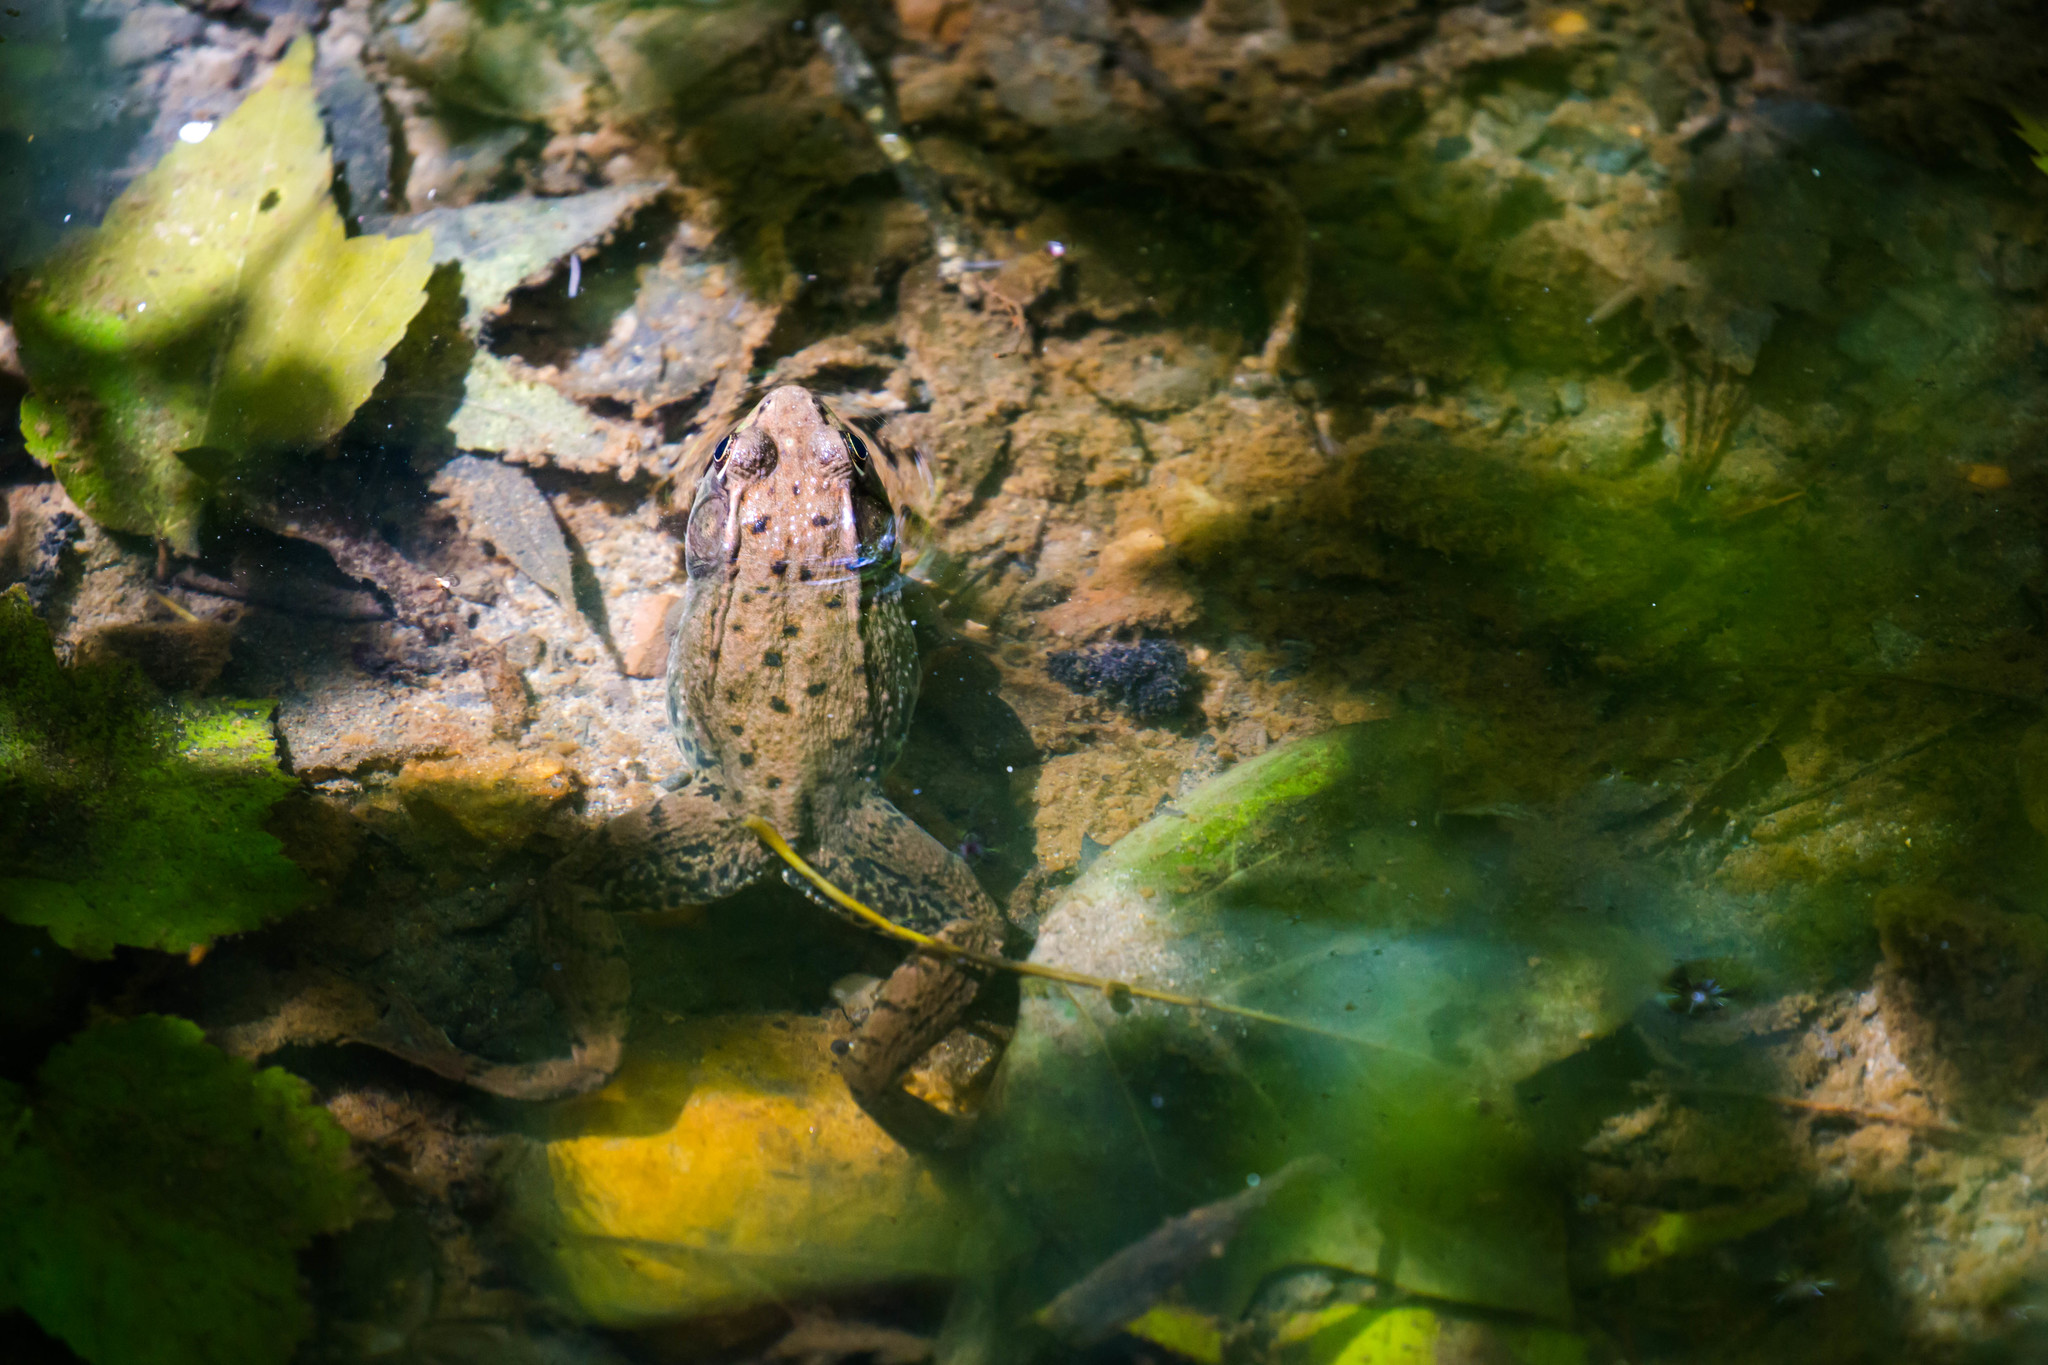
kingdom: Animalia
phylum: Chordata
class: Amphibia
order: Anura
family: Ranidae
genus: Lithobates
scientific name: Lithobates clamitans
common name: Green frog
